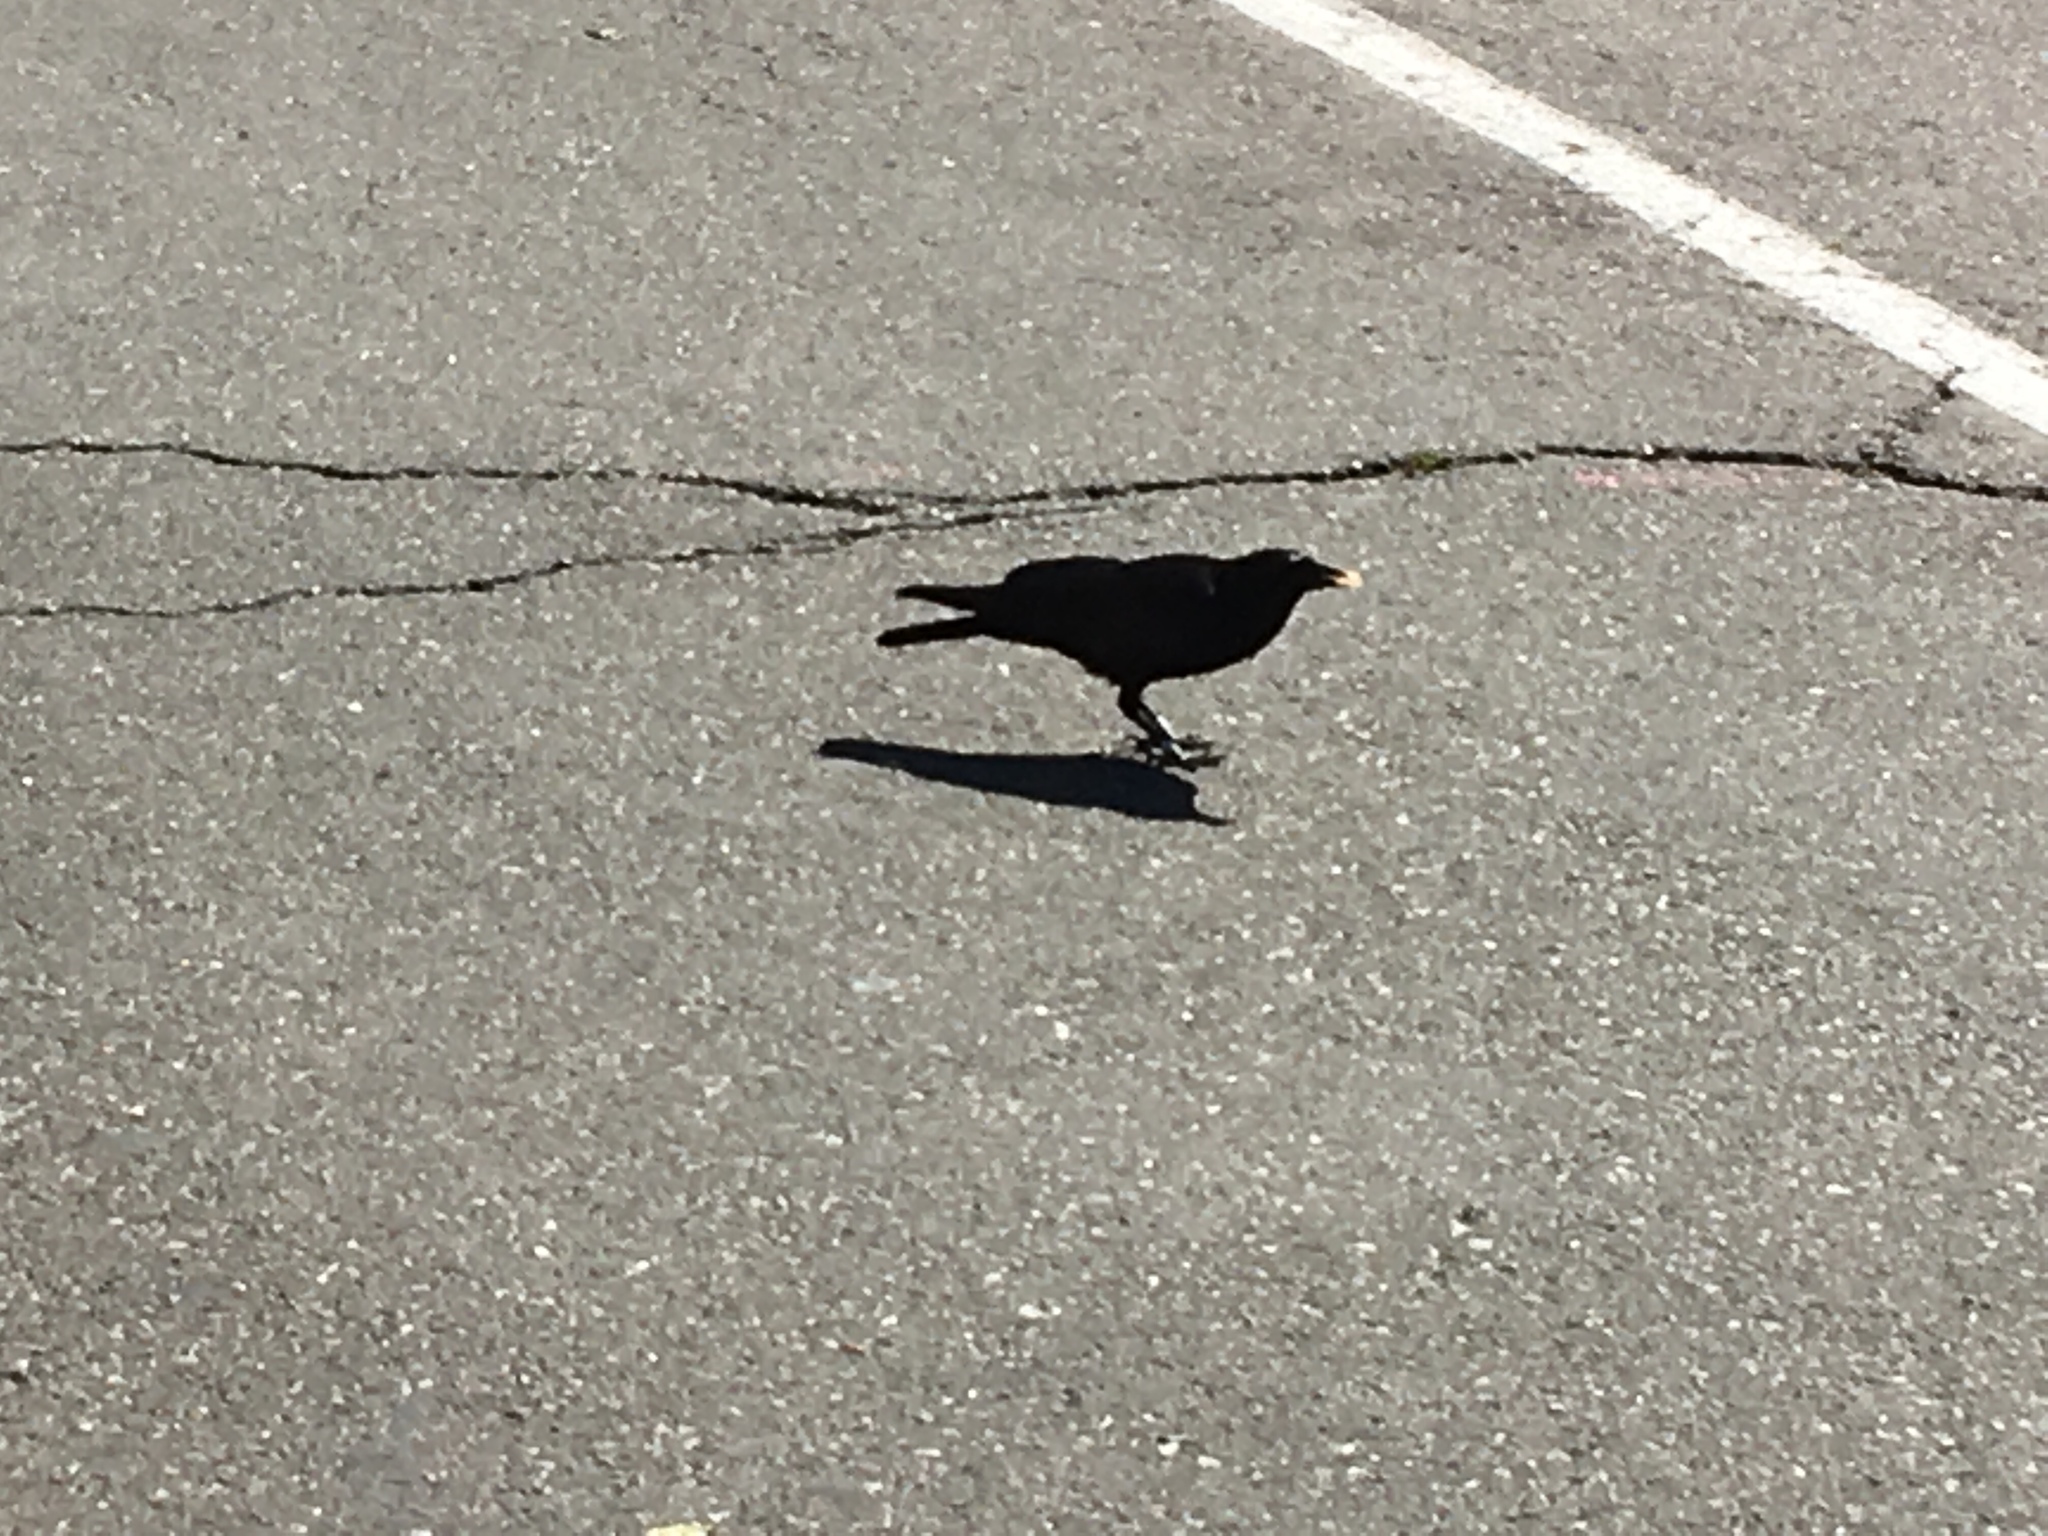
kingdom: Animalia
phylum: Chordata
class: Aves
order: Passeriformes
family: Corvidae
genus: Corvus
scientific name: Corvus brachyrhynchos
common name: American crow
